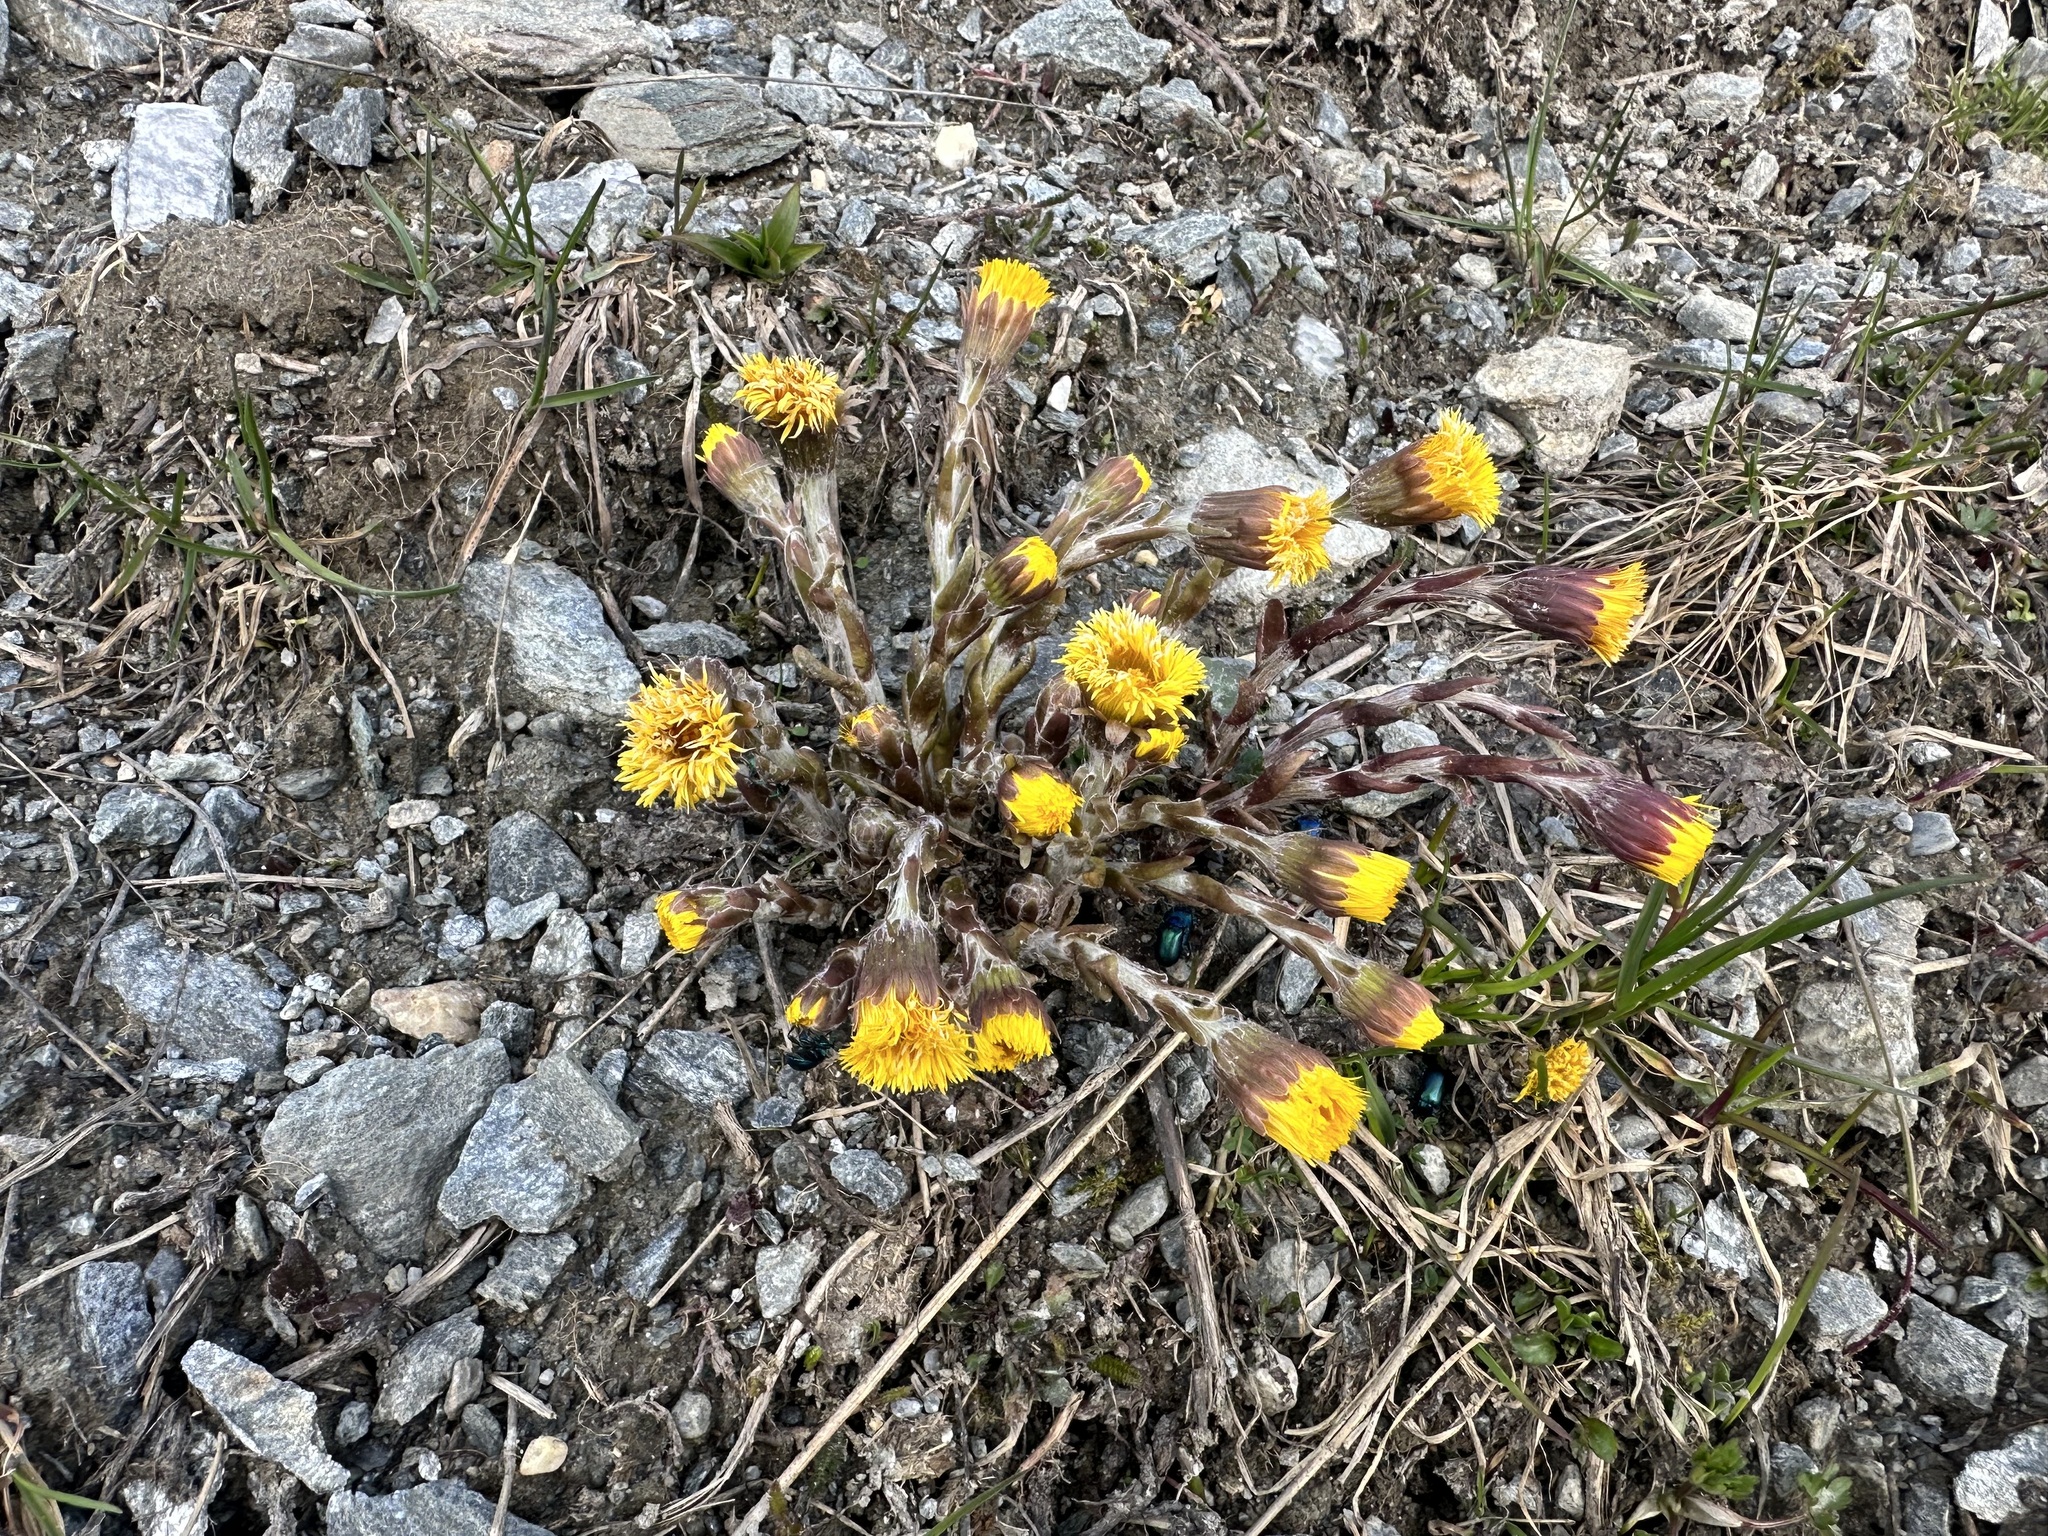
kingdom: Plantae
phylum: Tracheophyta
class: Magnoliopsida
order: Asterales
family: Asteraceae
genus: Tussilago
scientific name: Tussilago farfara
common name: Coltsfoot
